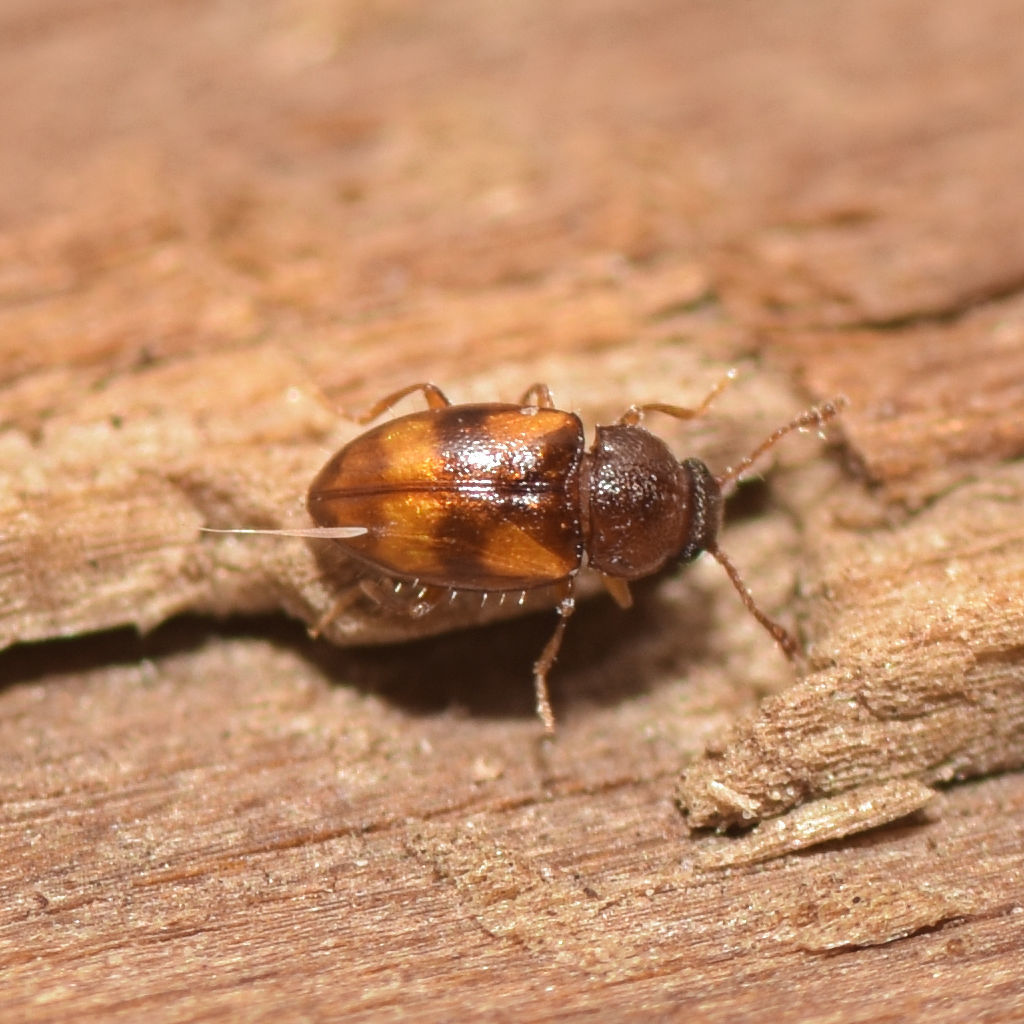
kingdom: Animalia
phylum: Arthropoda
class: Insecta
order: Coleoptera
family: Erotylidae
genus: Toramus
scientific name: Toramus pulchellus
